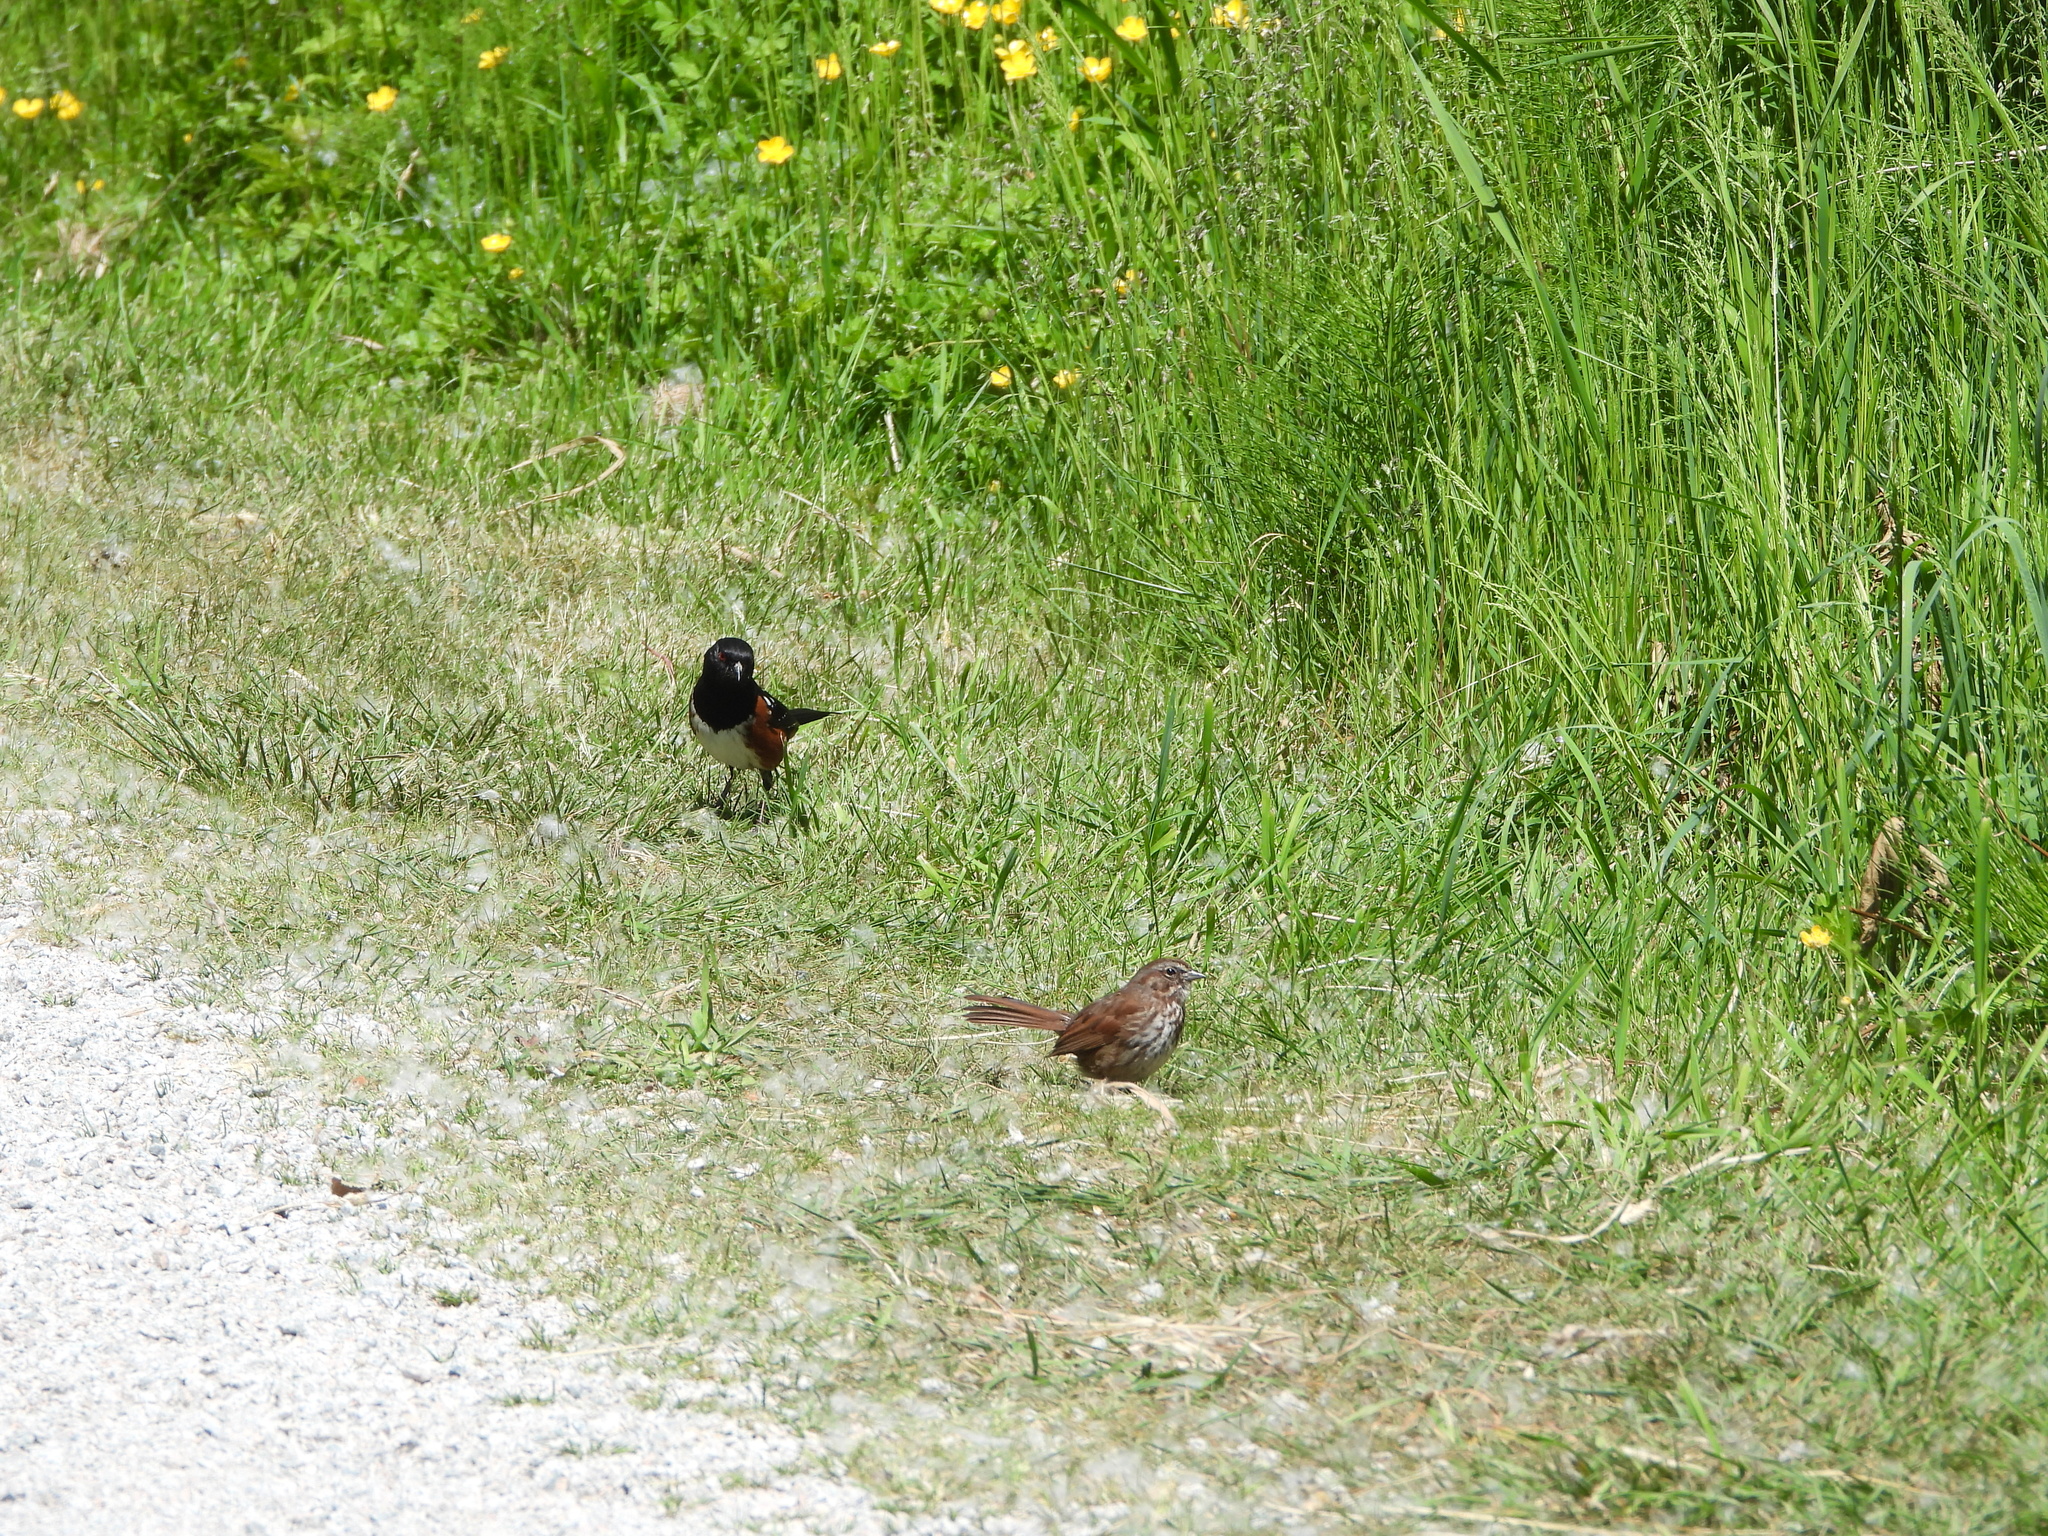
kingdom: Animalia
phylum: Chordata
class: Aves
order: Passeriformes
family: Passerellidae
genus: Pipilo
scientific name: Pipilo maculatus
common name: Spotted towhee
